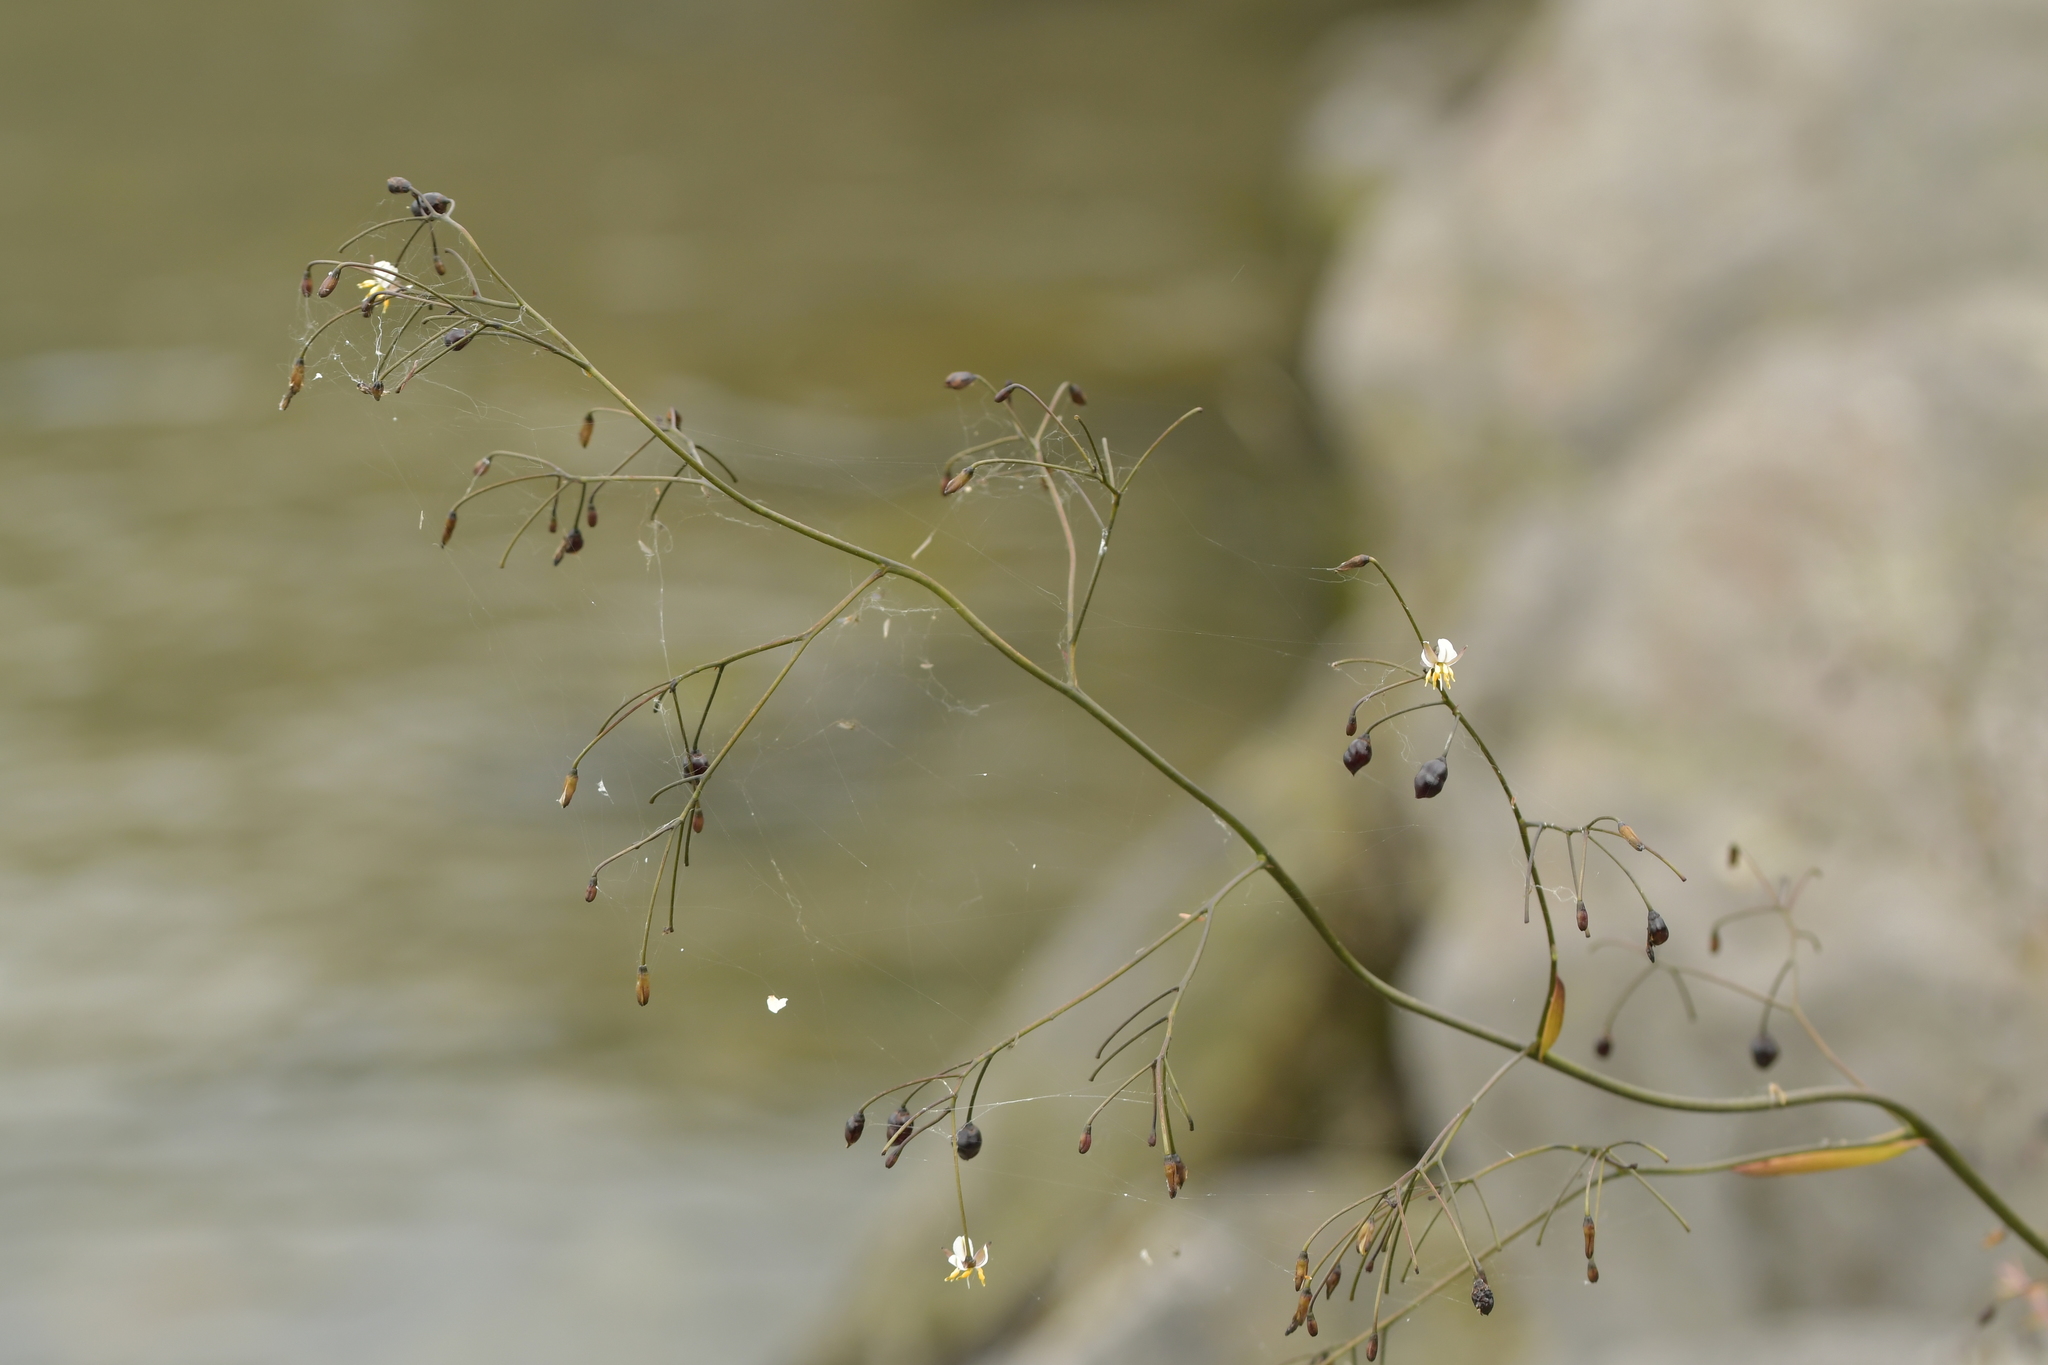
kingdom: Plantae
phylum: Tracheophyta
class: Liliopsida
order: Asparagales
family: Asphodelaceae
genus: Dianella
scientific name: Dianella nigra
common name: New zealand-blueberry
